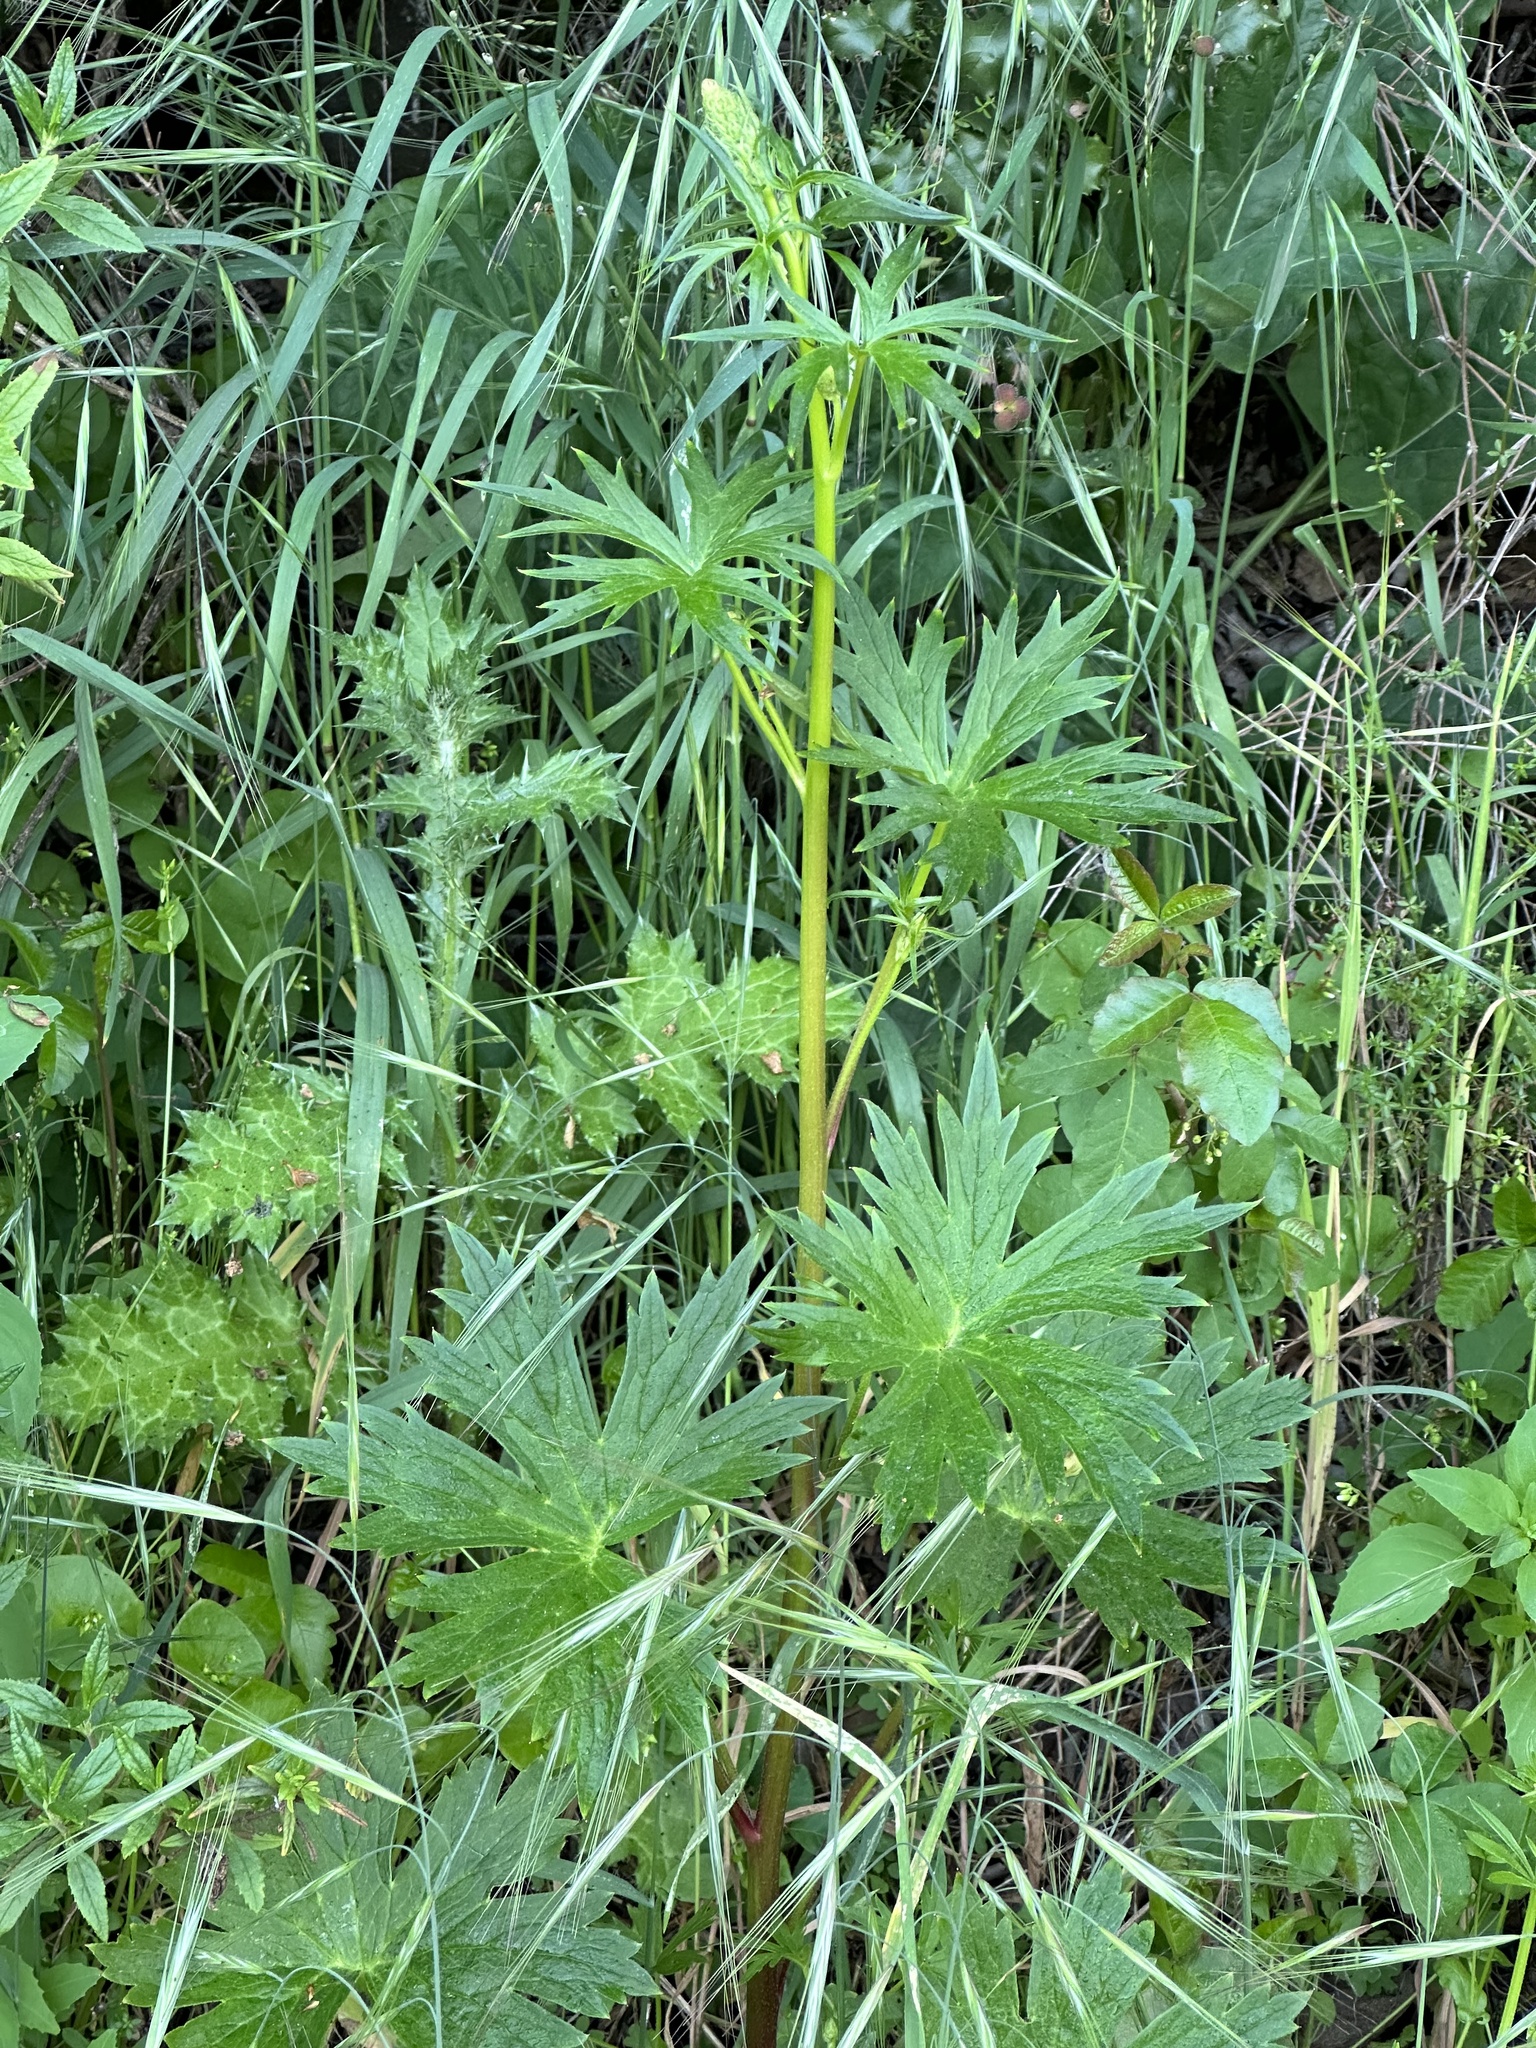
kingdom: Plantae
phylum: Tracheophyta
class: Magnoliopsida
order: Ranunculales
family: Ranunculaceae
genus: Delphinium
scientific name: Delphinium californicum
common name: California larkspur
